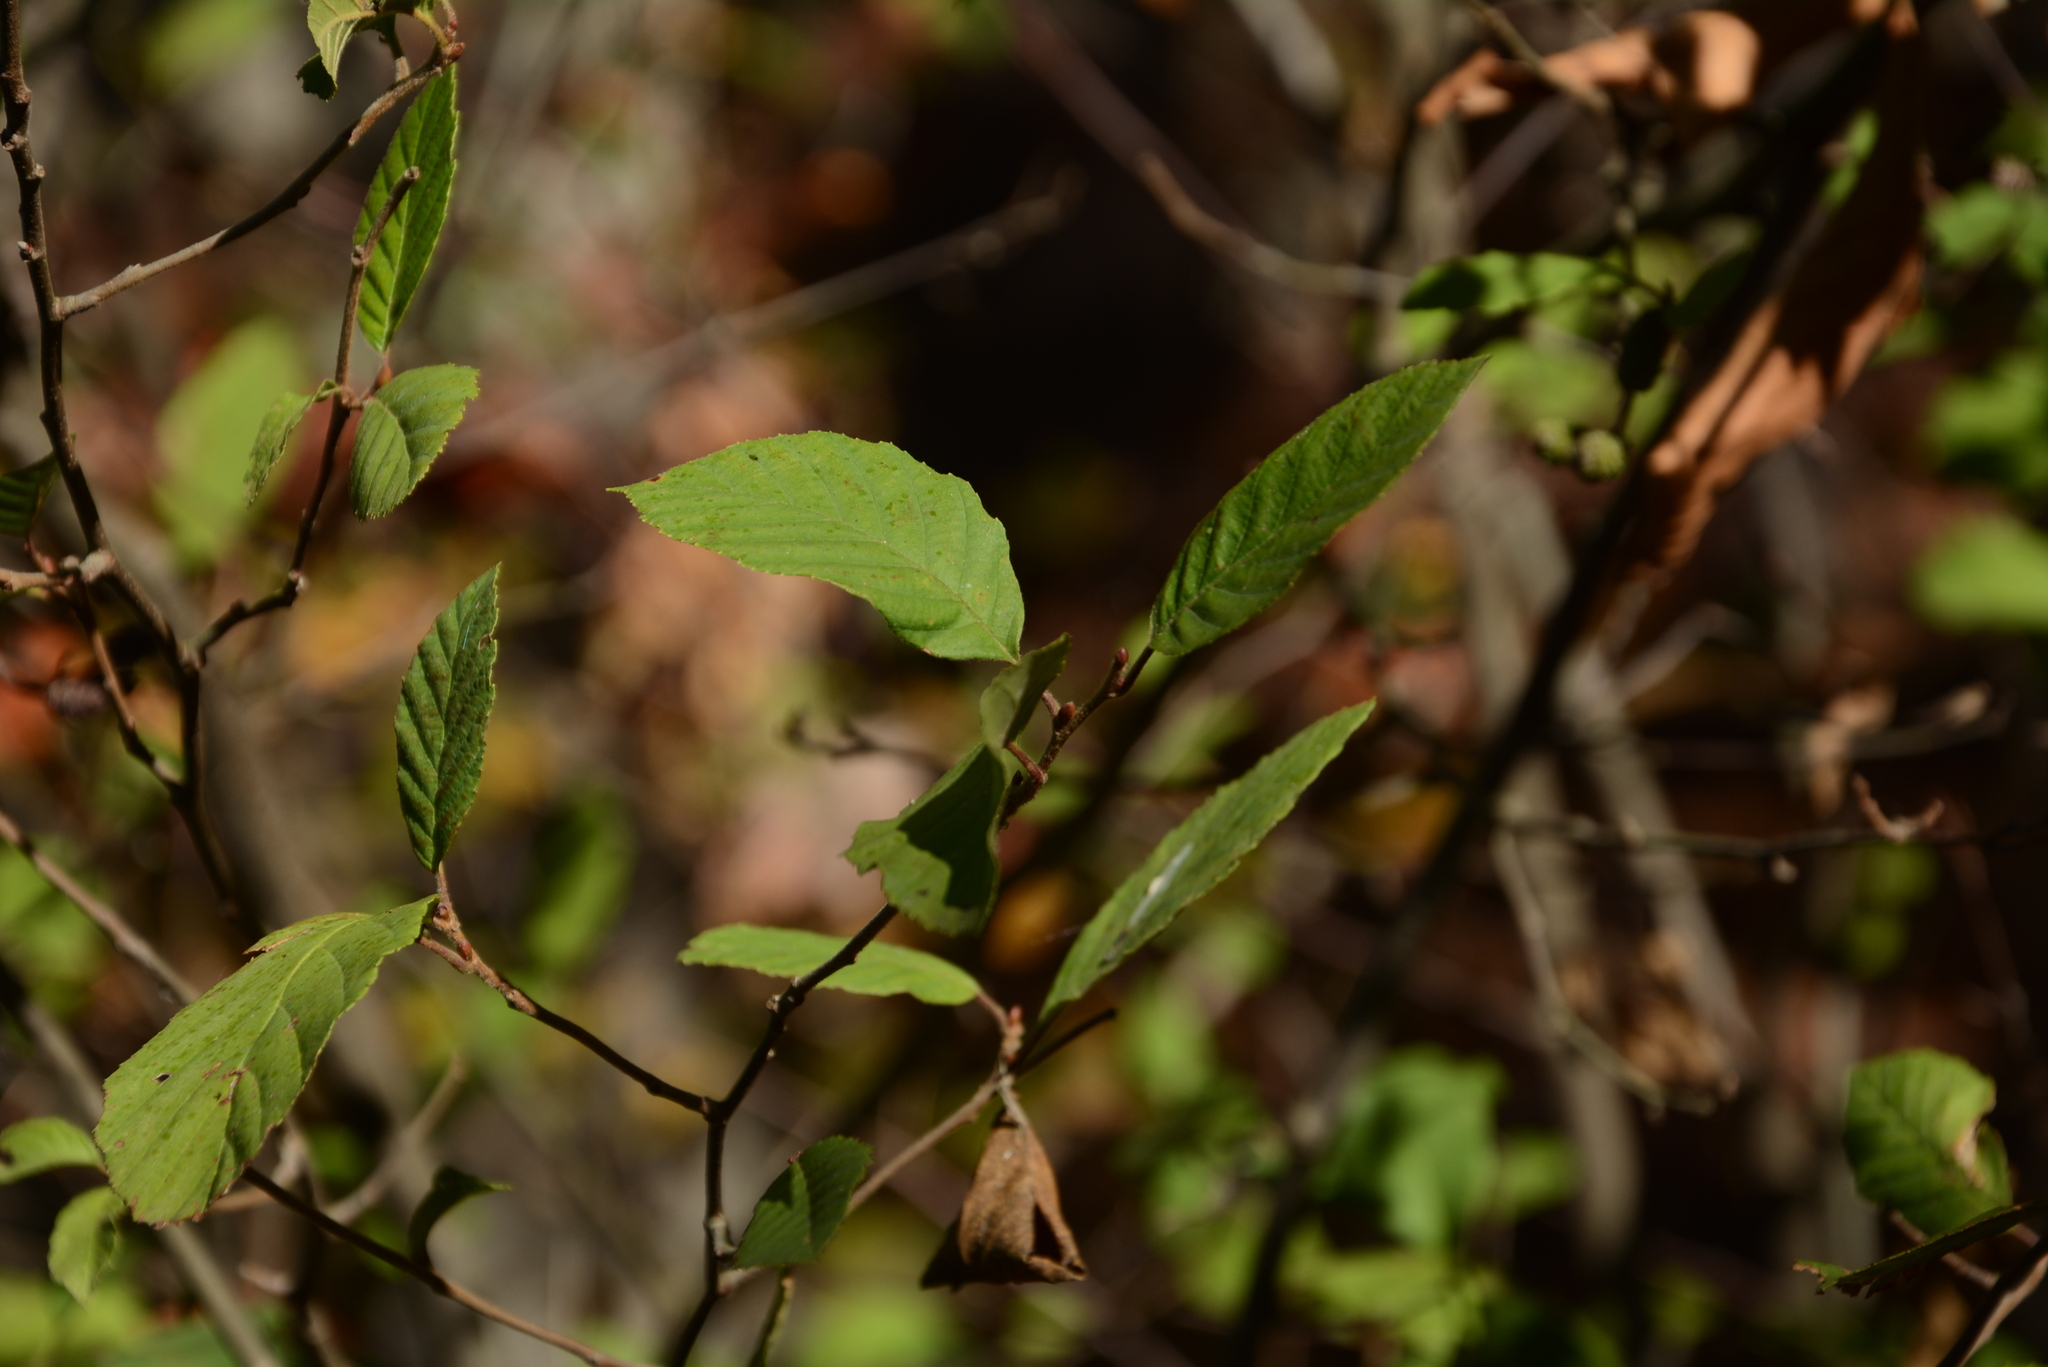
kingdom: Plantae
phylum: Tracheophyta
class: Magnoliopsida
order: Fagales
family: Betulaceae
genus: Alnus
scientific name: Alnus serrulata
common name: Hazel alder
